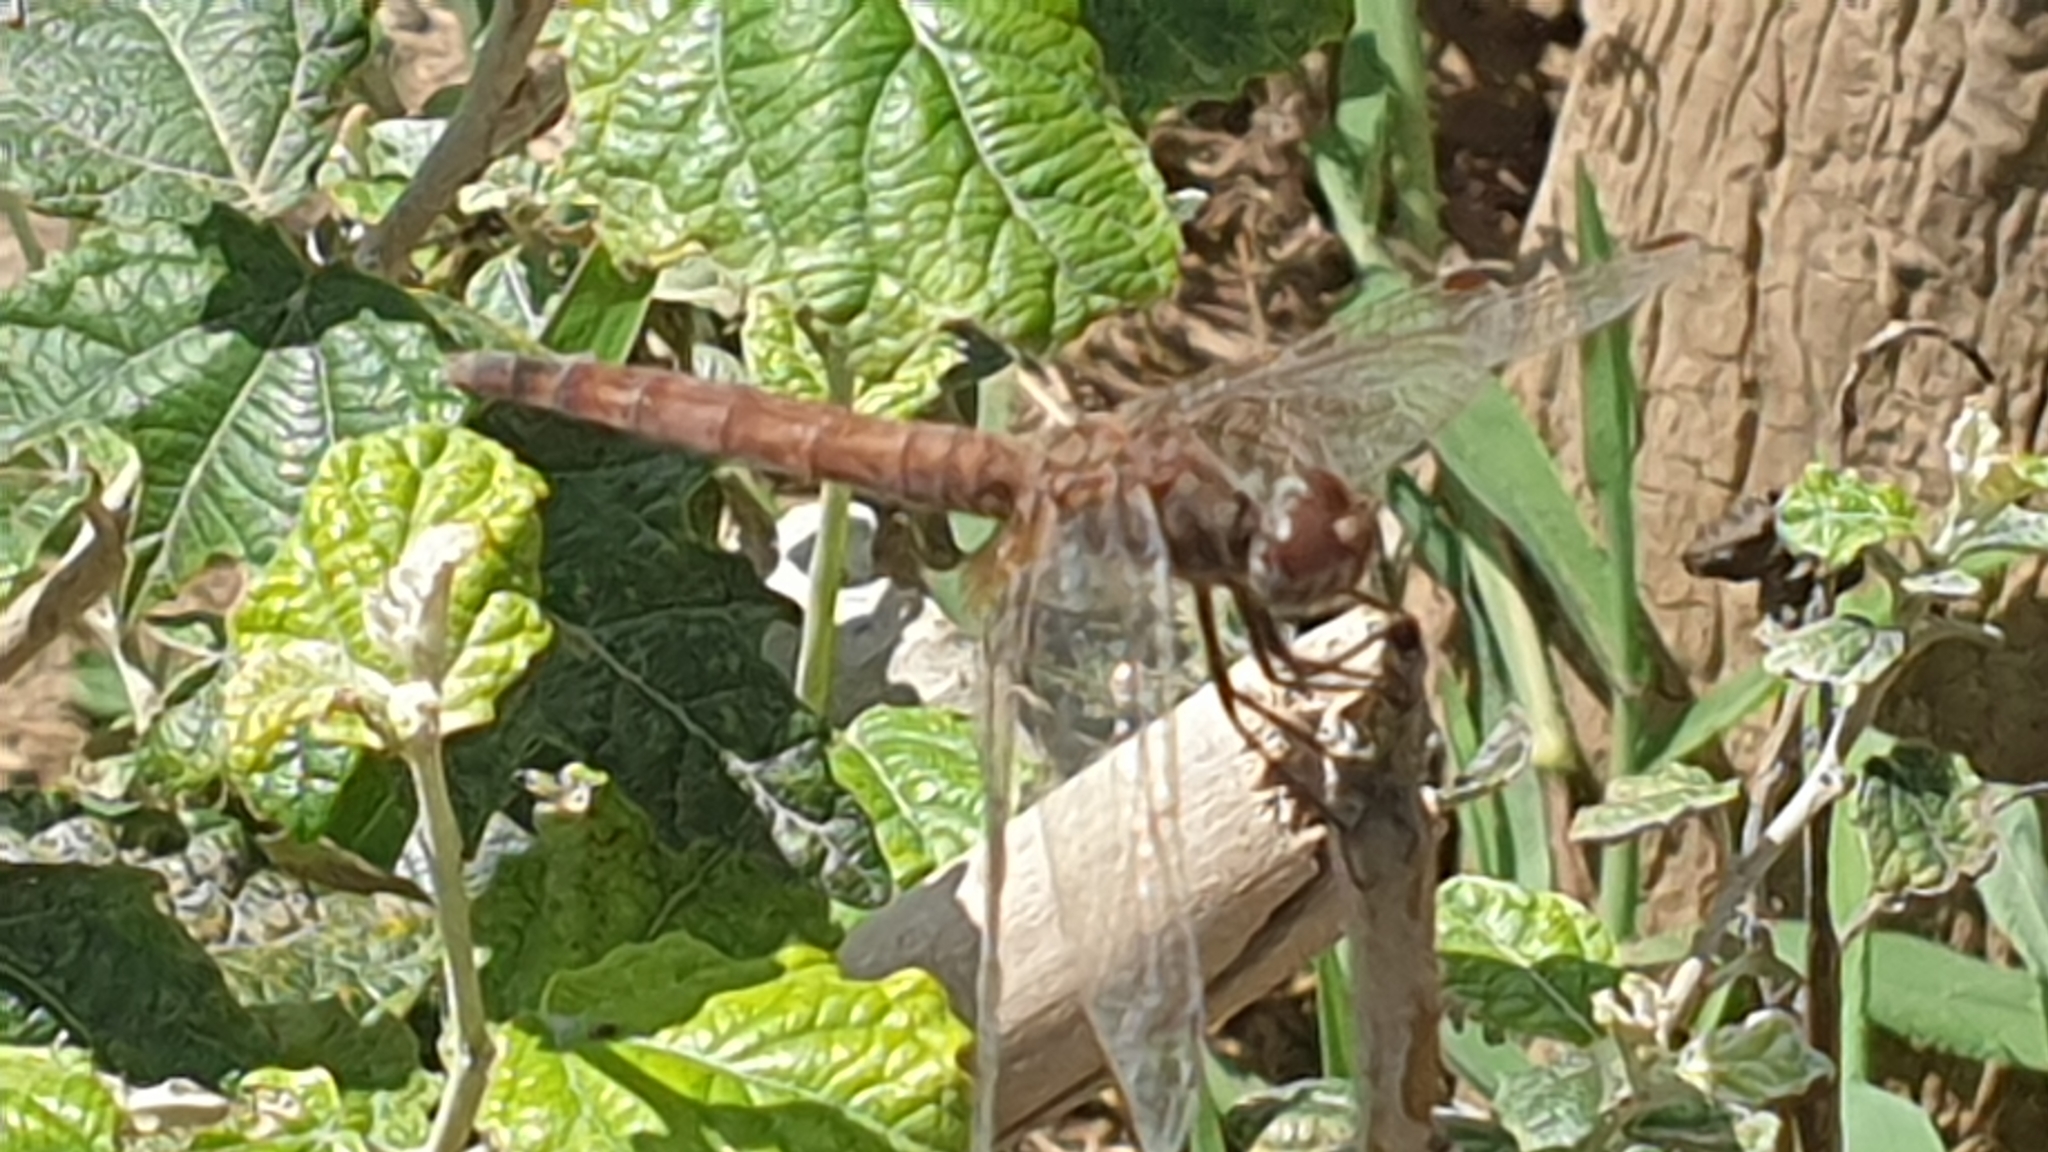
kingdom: Animalia
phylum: Arthropoda
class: Insecta
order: Odonata
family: Libellulidae
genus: Trithemis
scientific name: Trithemis annulata
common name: Violet dropwing
